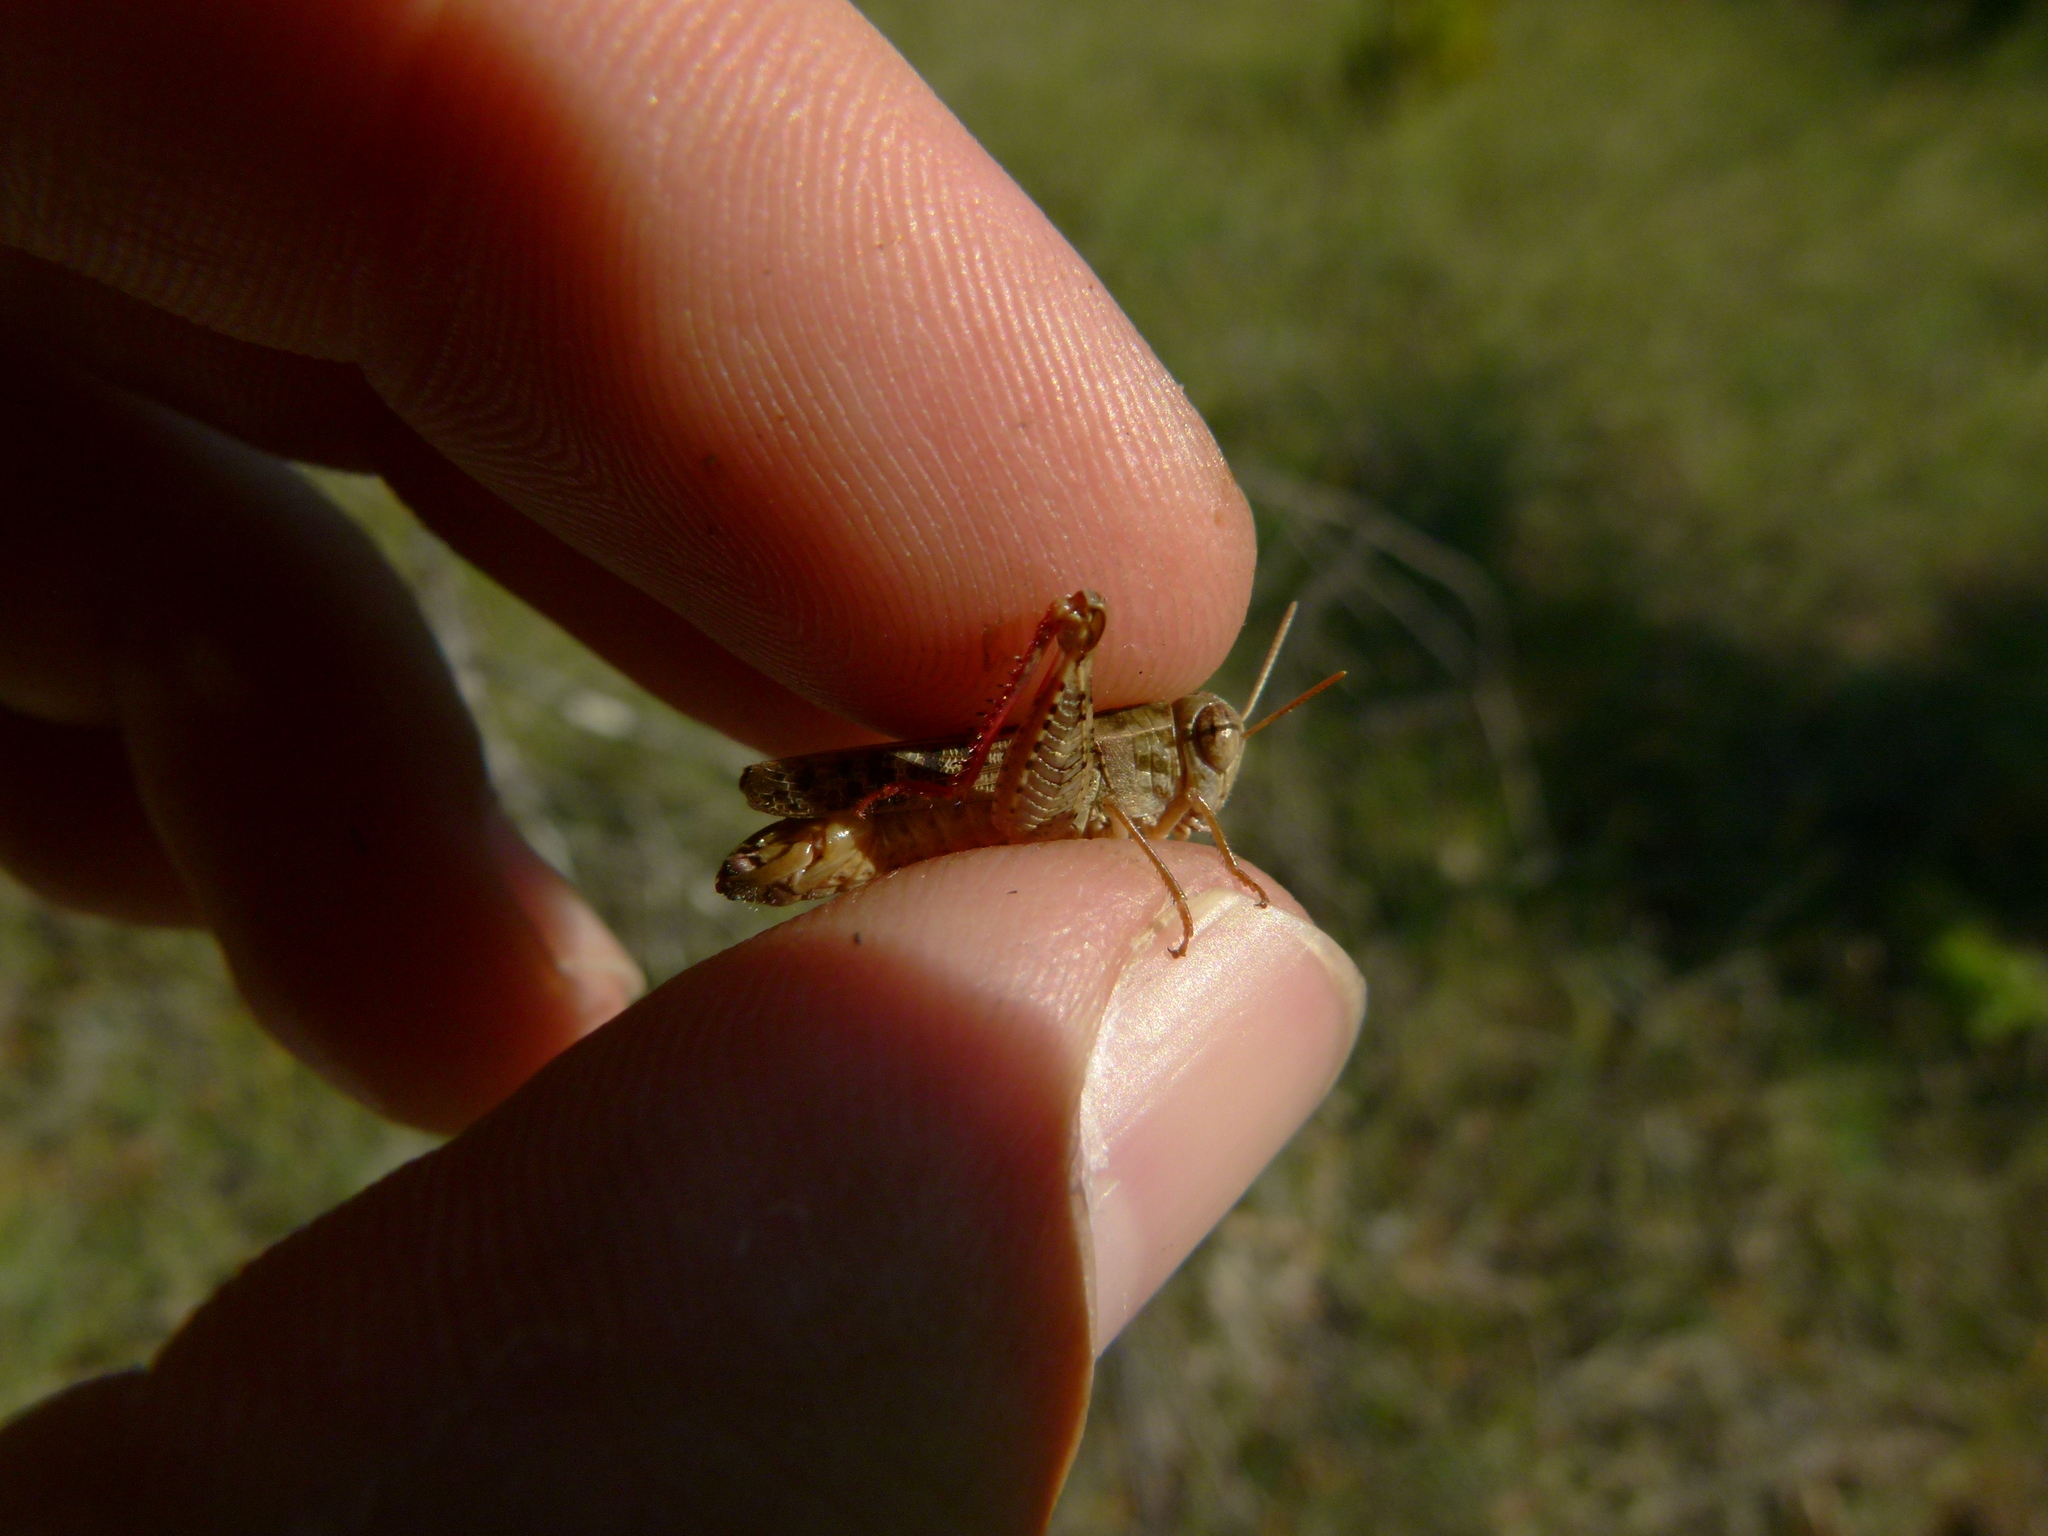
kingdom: Animalia
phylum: Arthropoda
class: Insecta
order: Orthoptera
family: Acrididae
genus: Calliptamus
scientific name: Calliptamus barbarus
